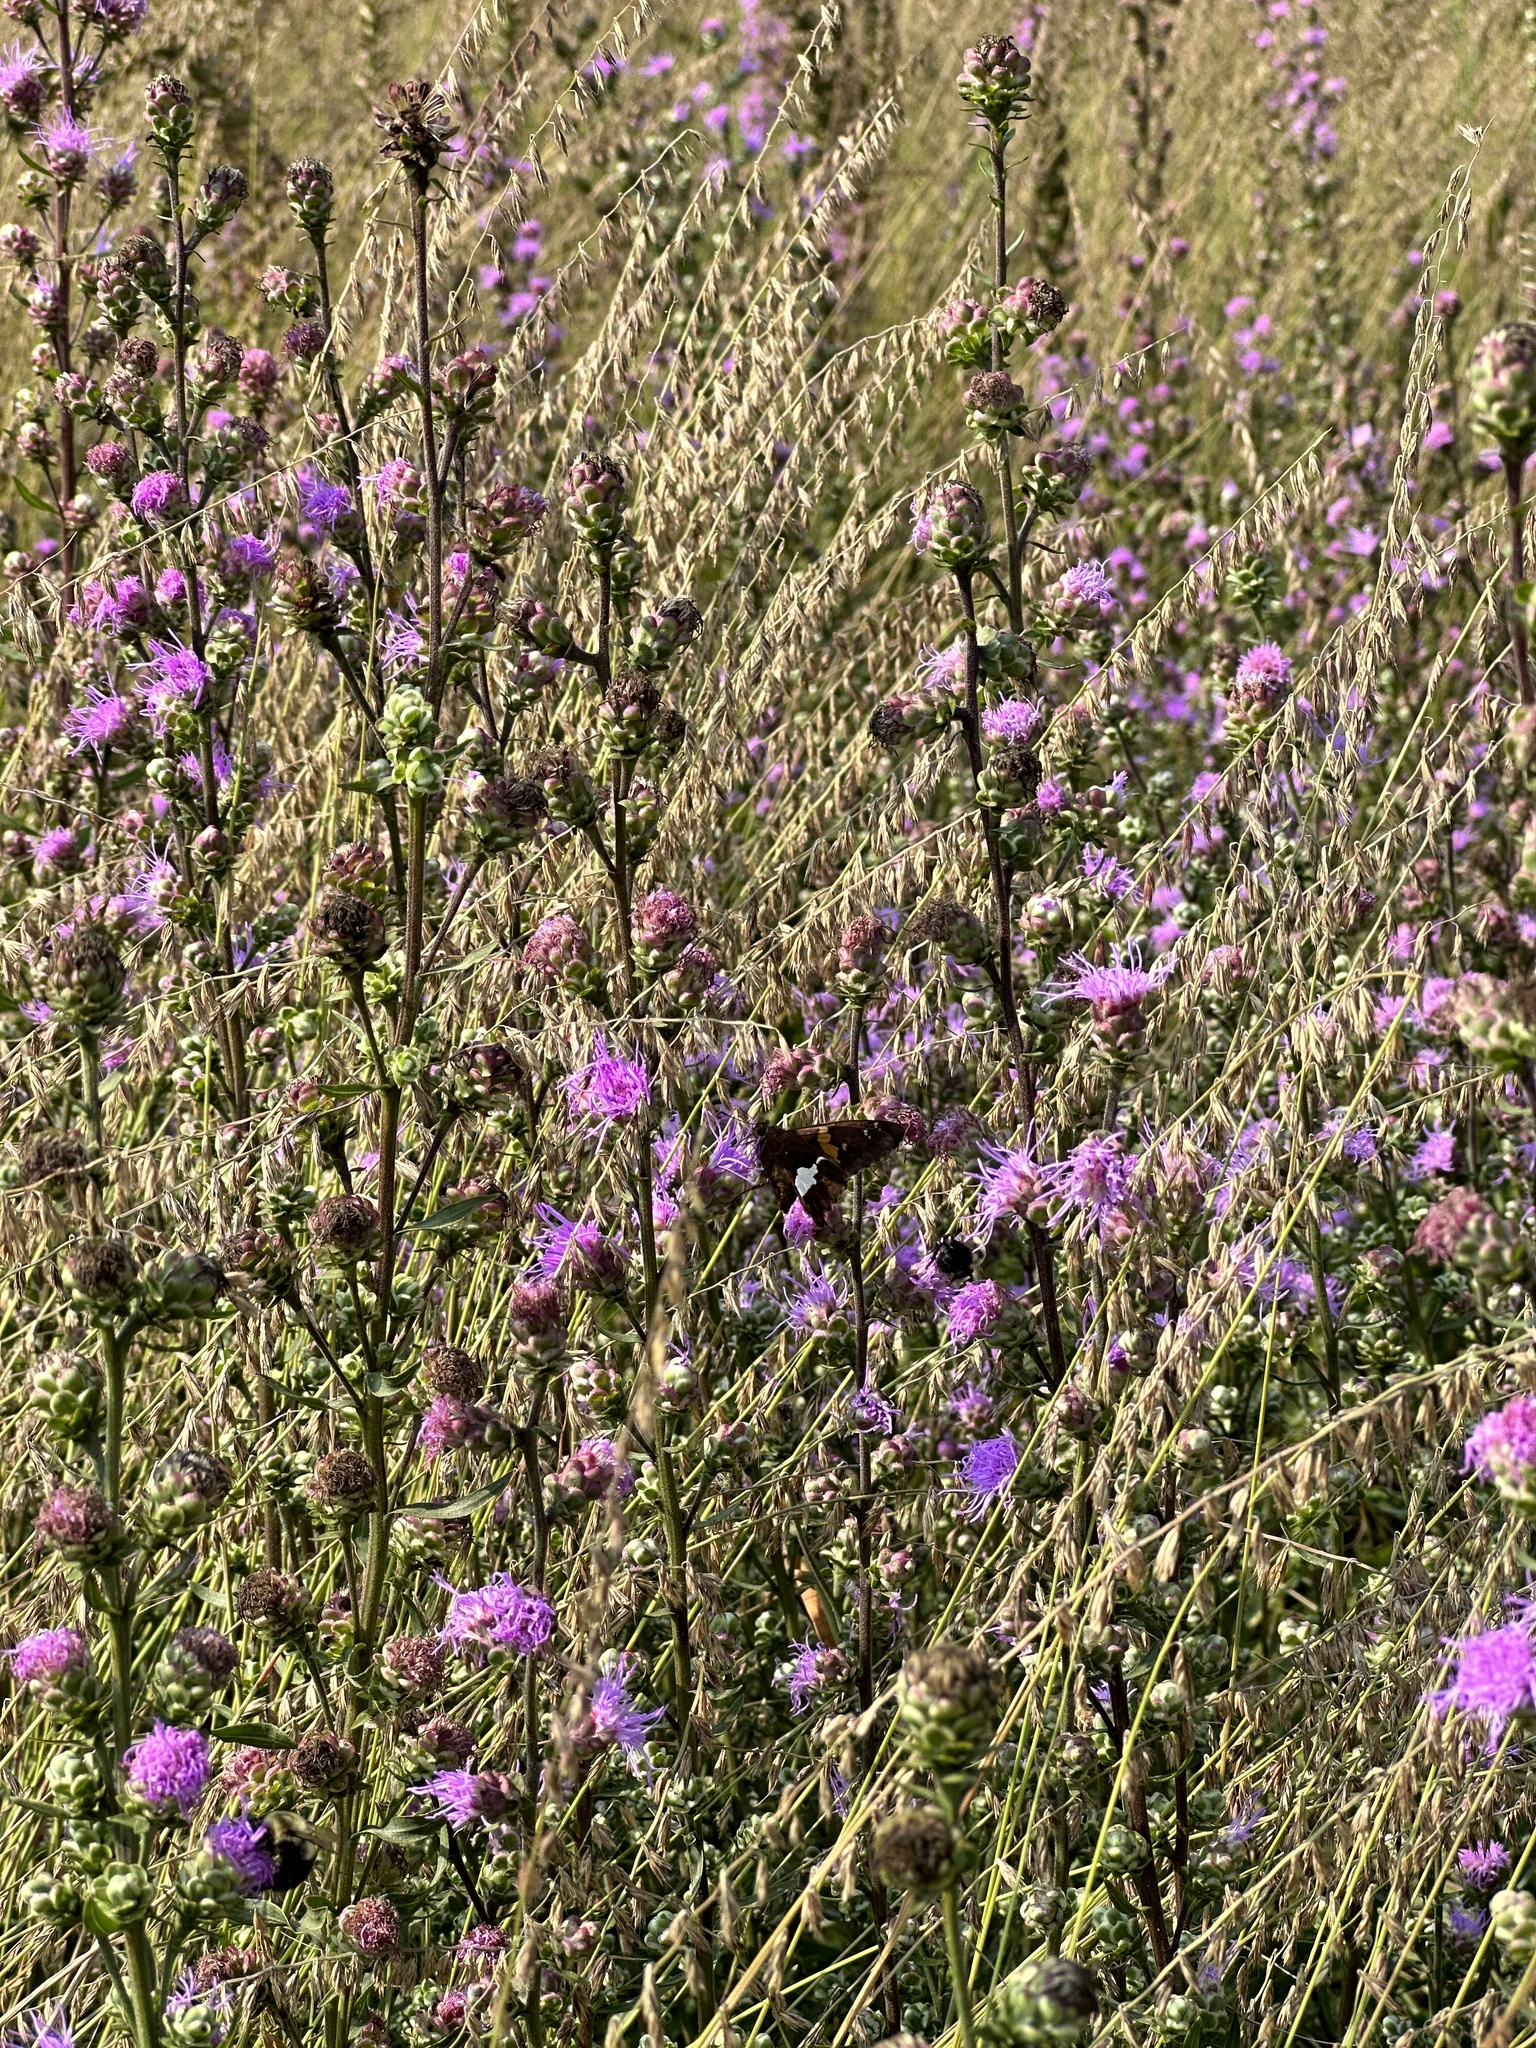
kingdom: Animalia
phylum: Arthropoda
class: Insecta
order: Lepidoptera
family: Hesperiidae
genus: Epargyreus
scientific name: Epargyreus clarus
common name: Silver-spotted skipper
